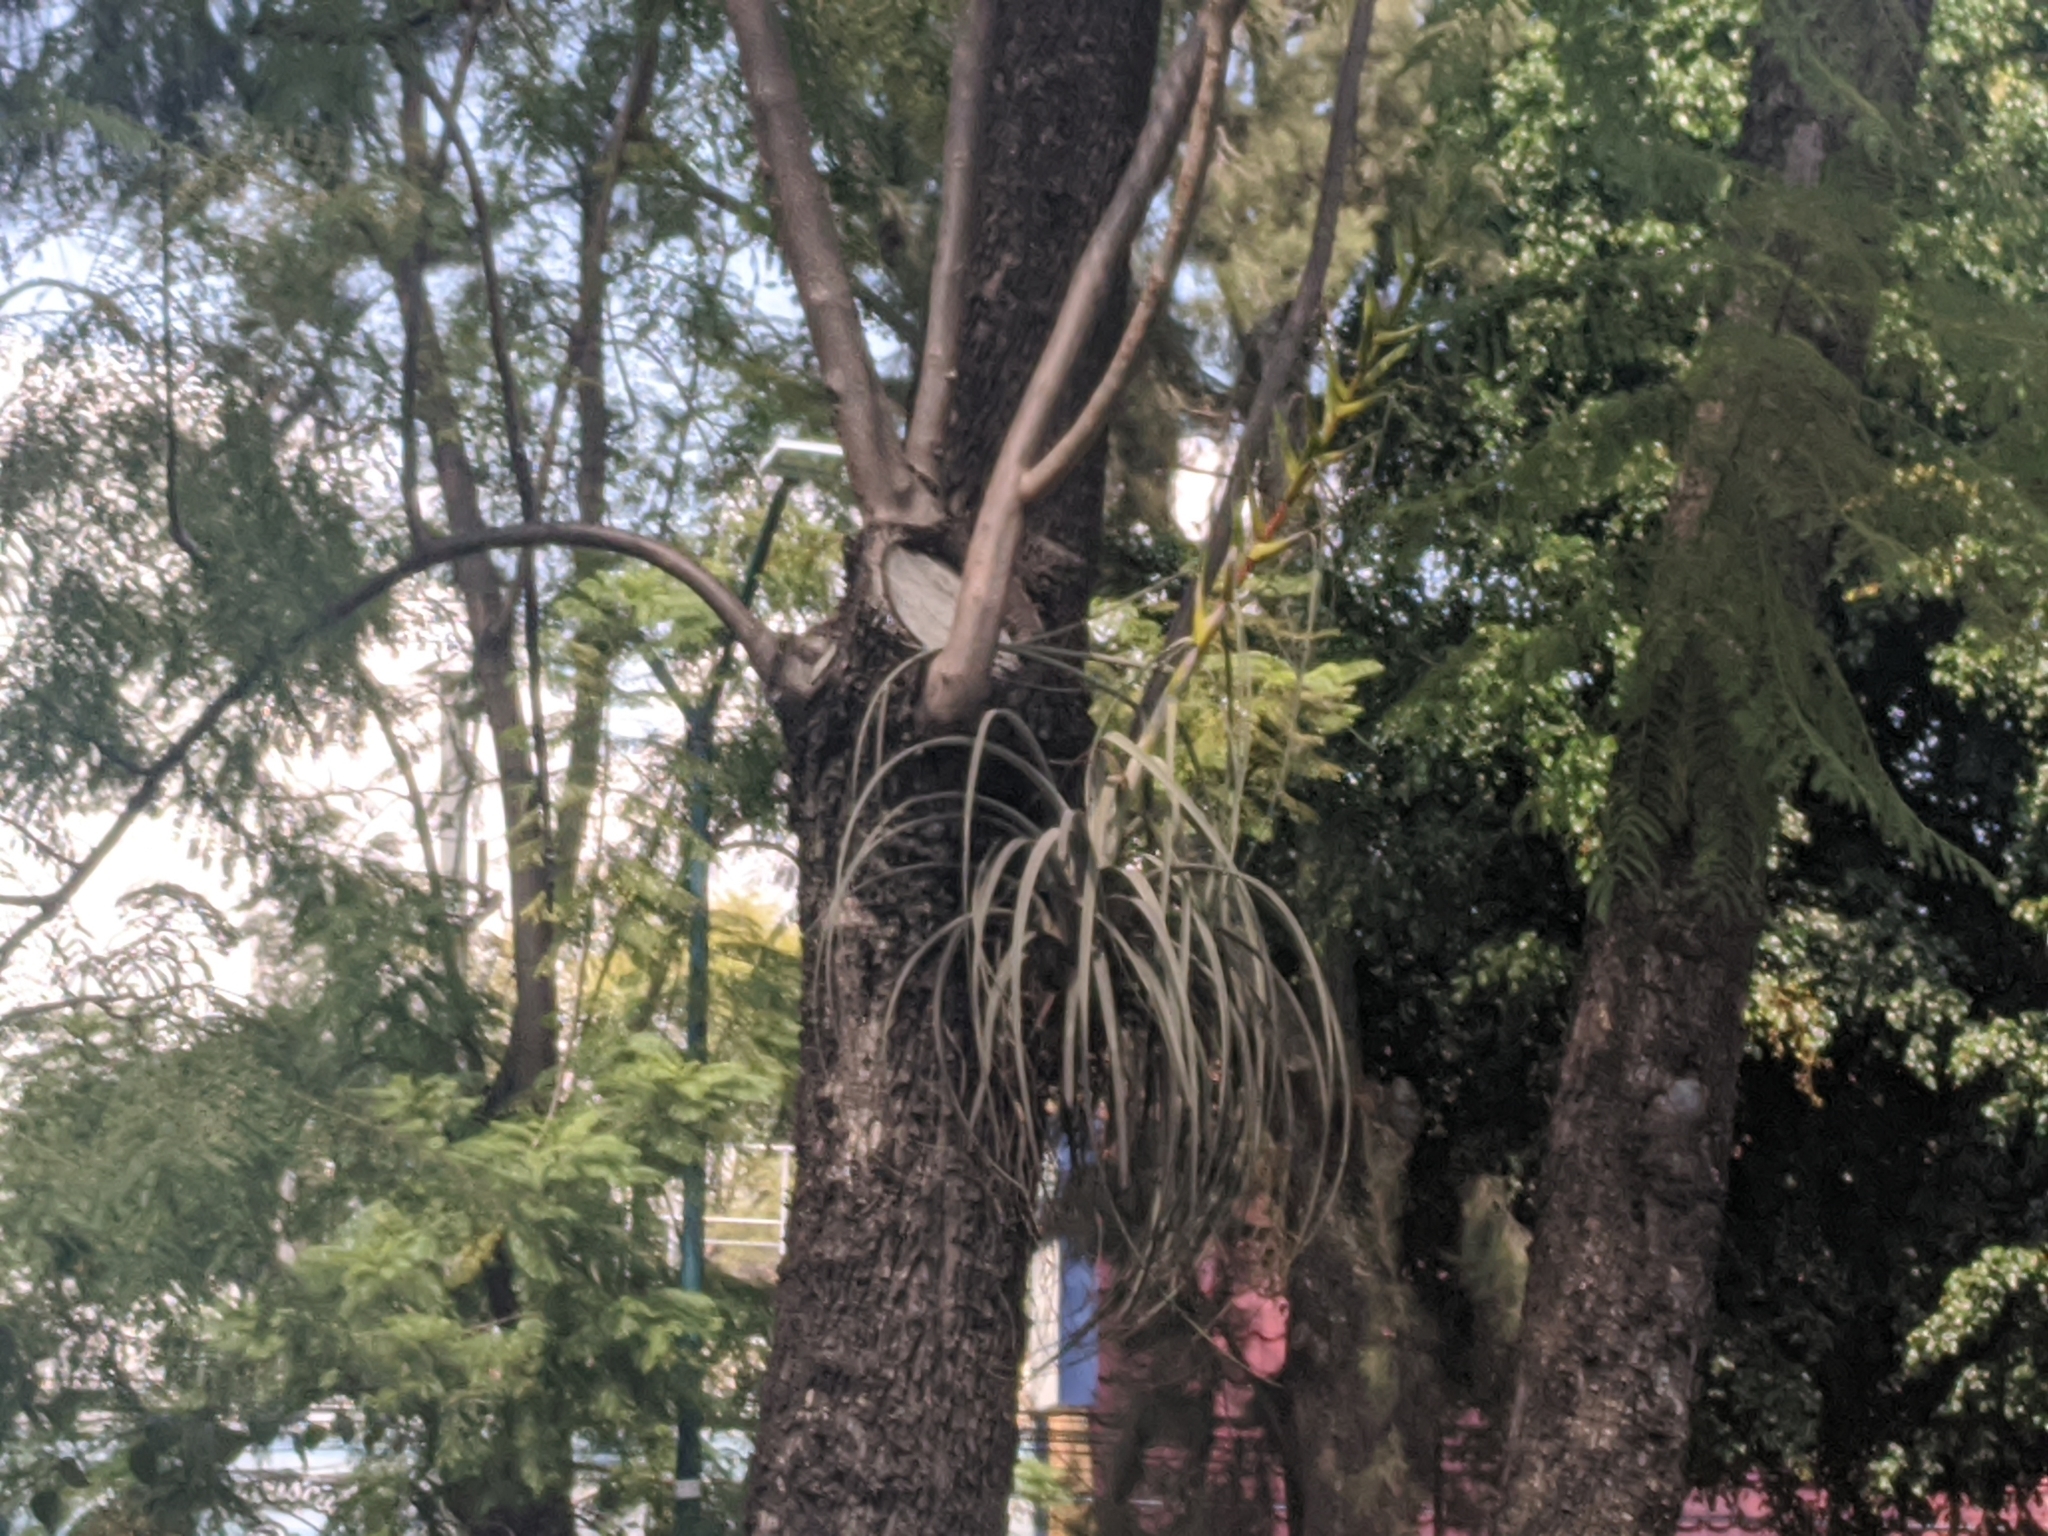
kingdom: Plantae
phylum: Tracheophyta
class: Liliopsida
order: Poales
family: Bromeliaceae
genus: Tillandsia
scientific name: Tillandsia calothyrsus
